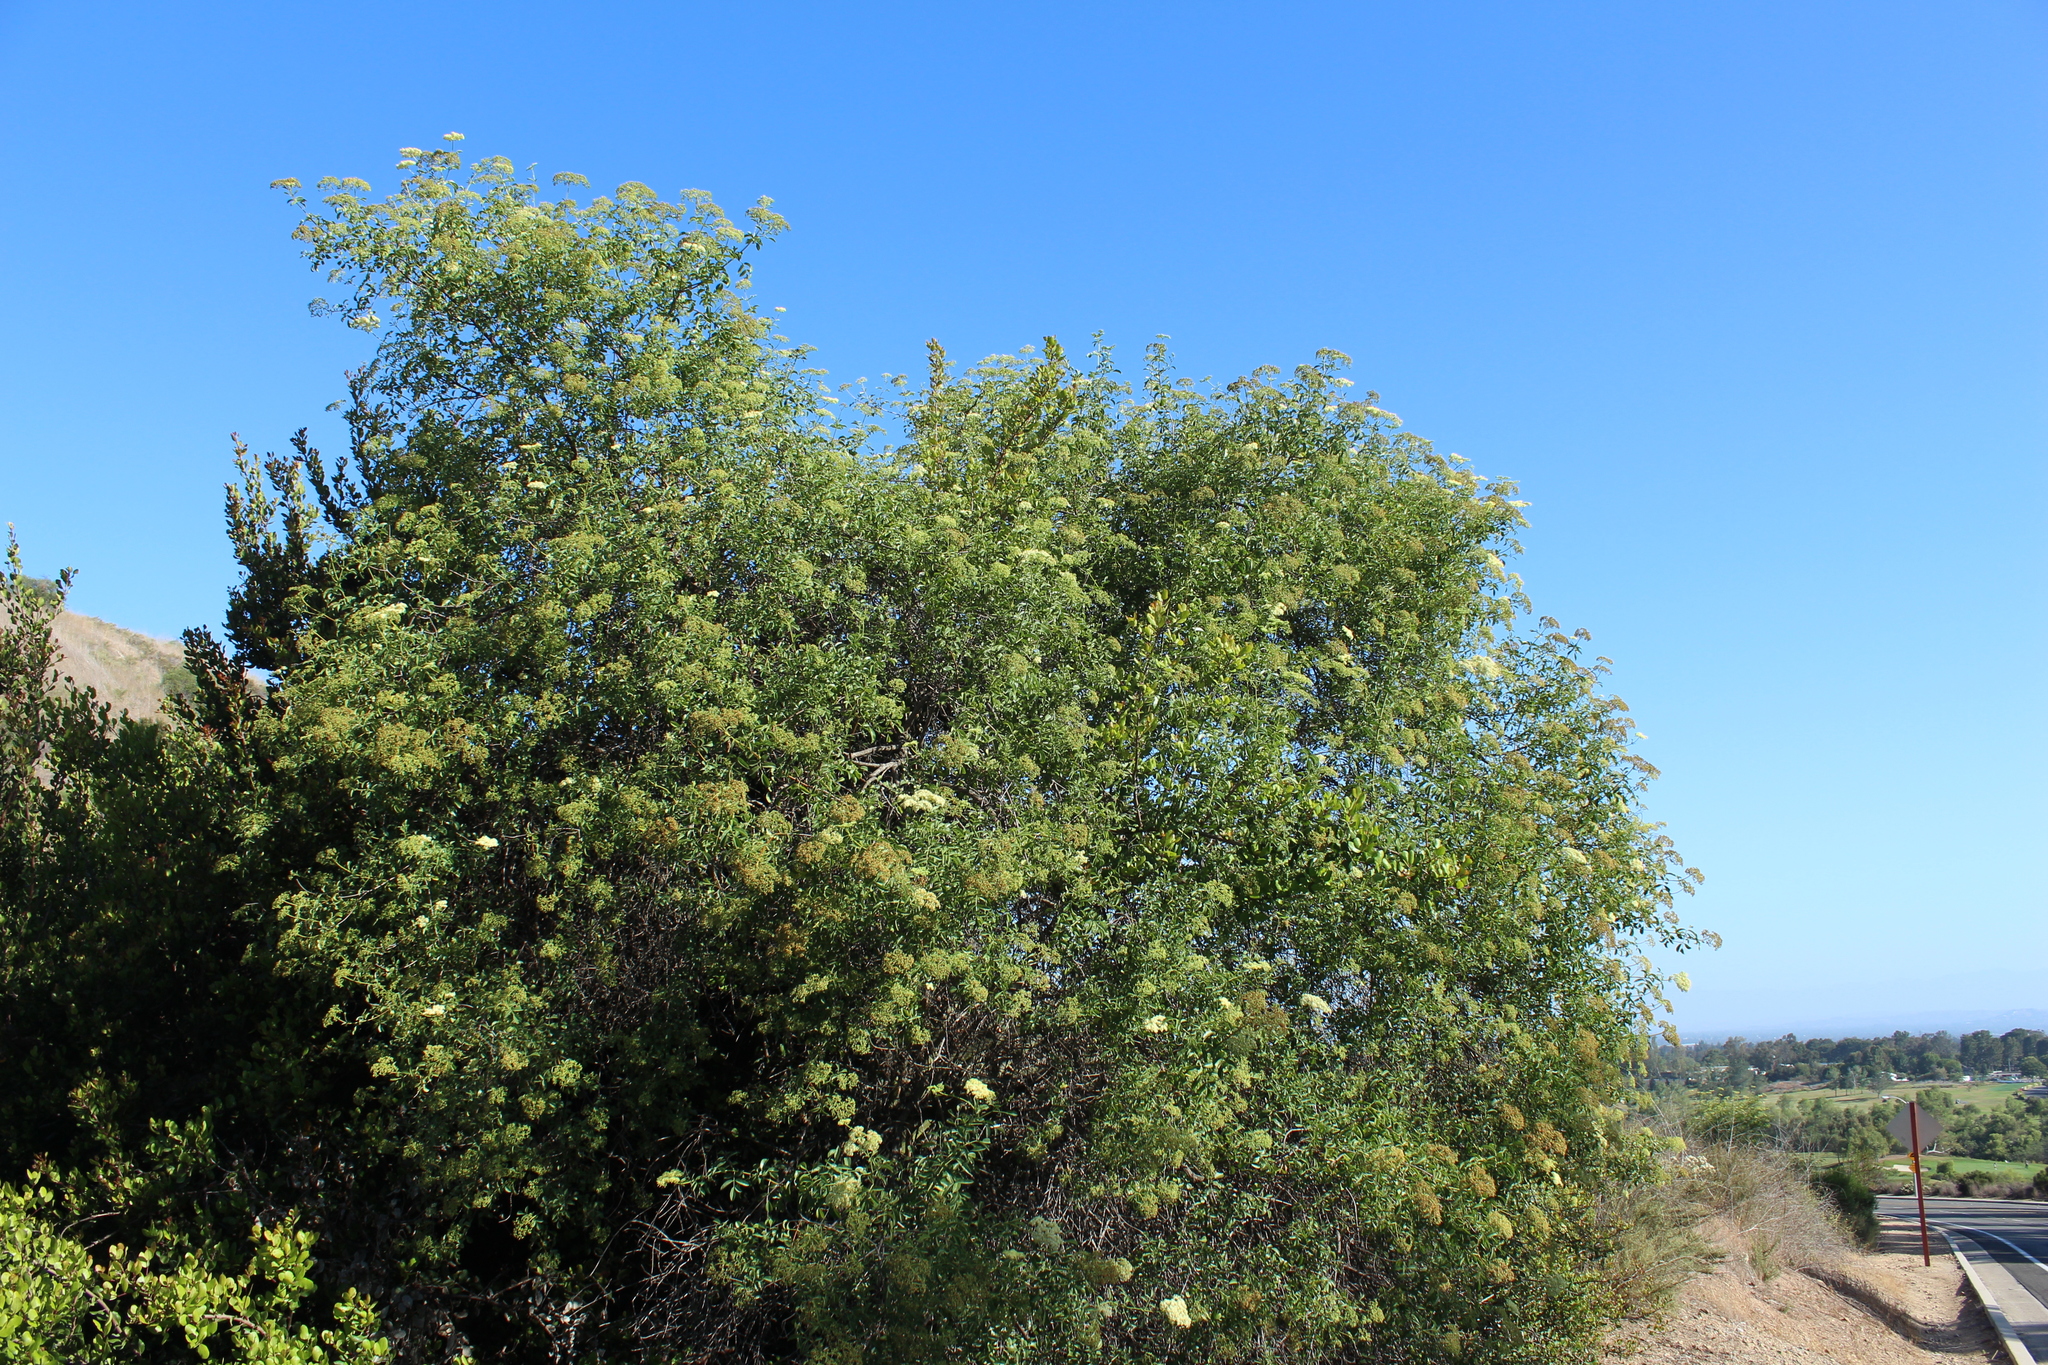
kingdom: Plantae
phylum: Tracheophyta
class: Magnoliopsida
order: Dipsacales
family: Viburnaceae
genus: Sambucus
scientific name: Sambucus cerulea
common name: Blue elder
